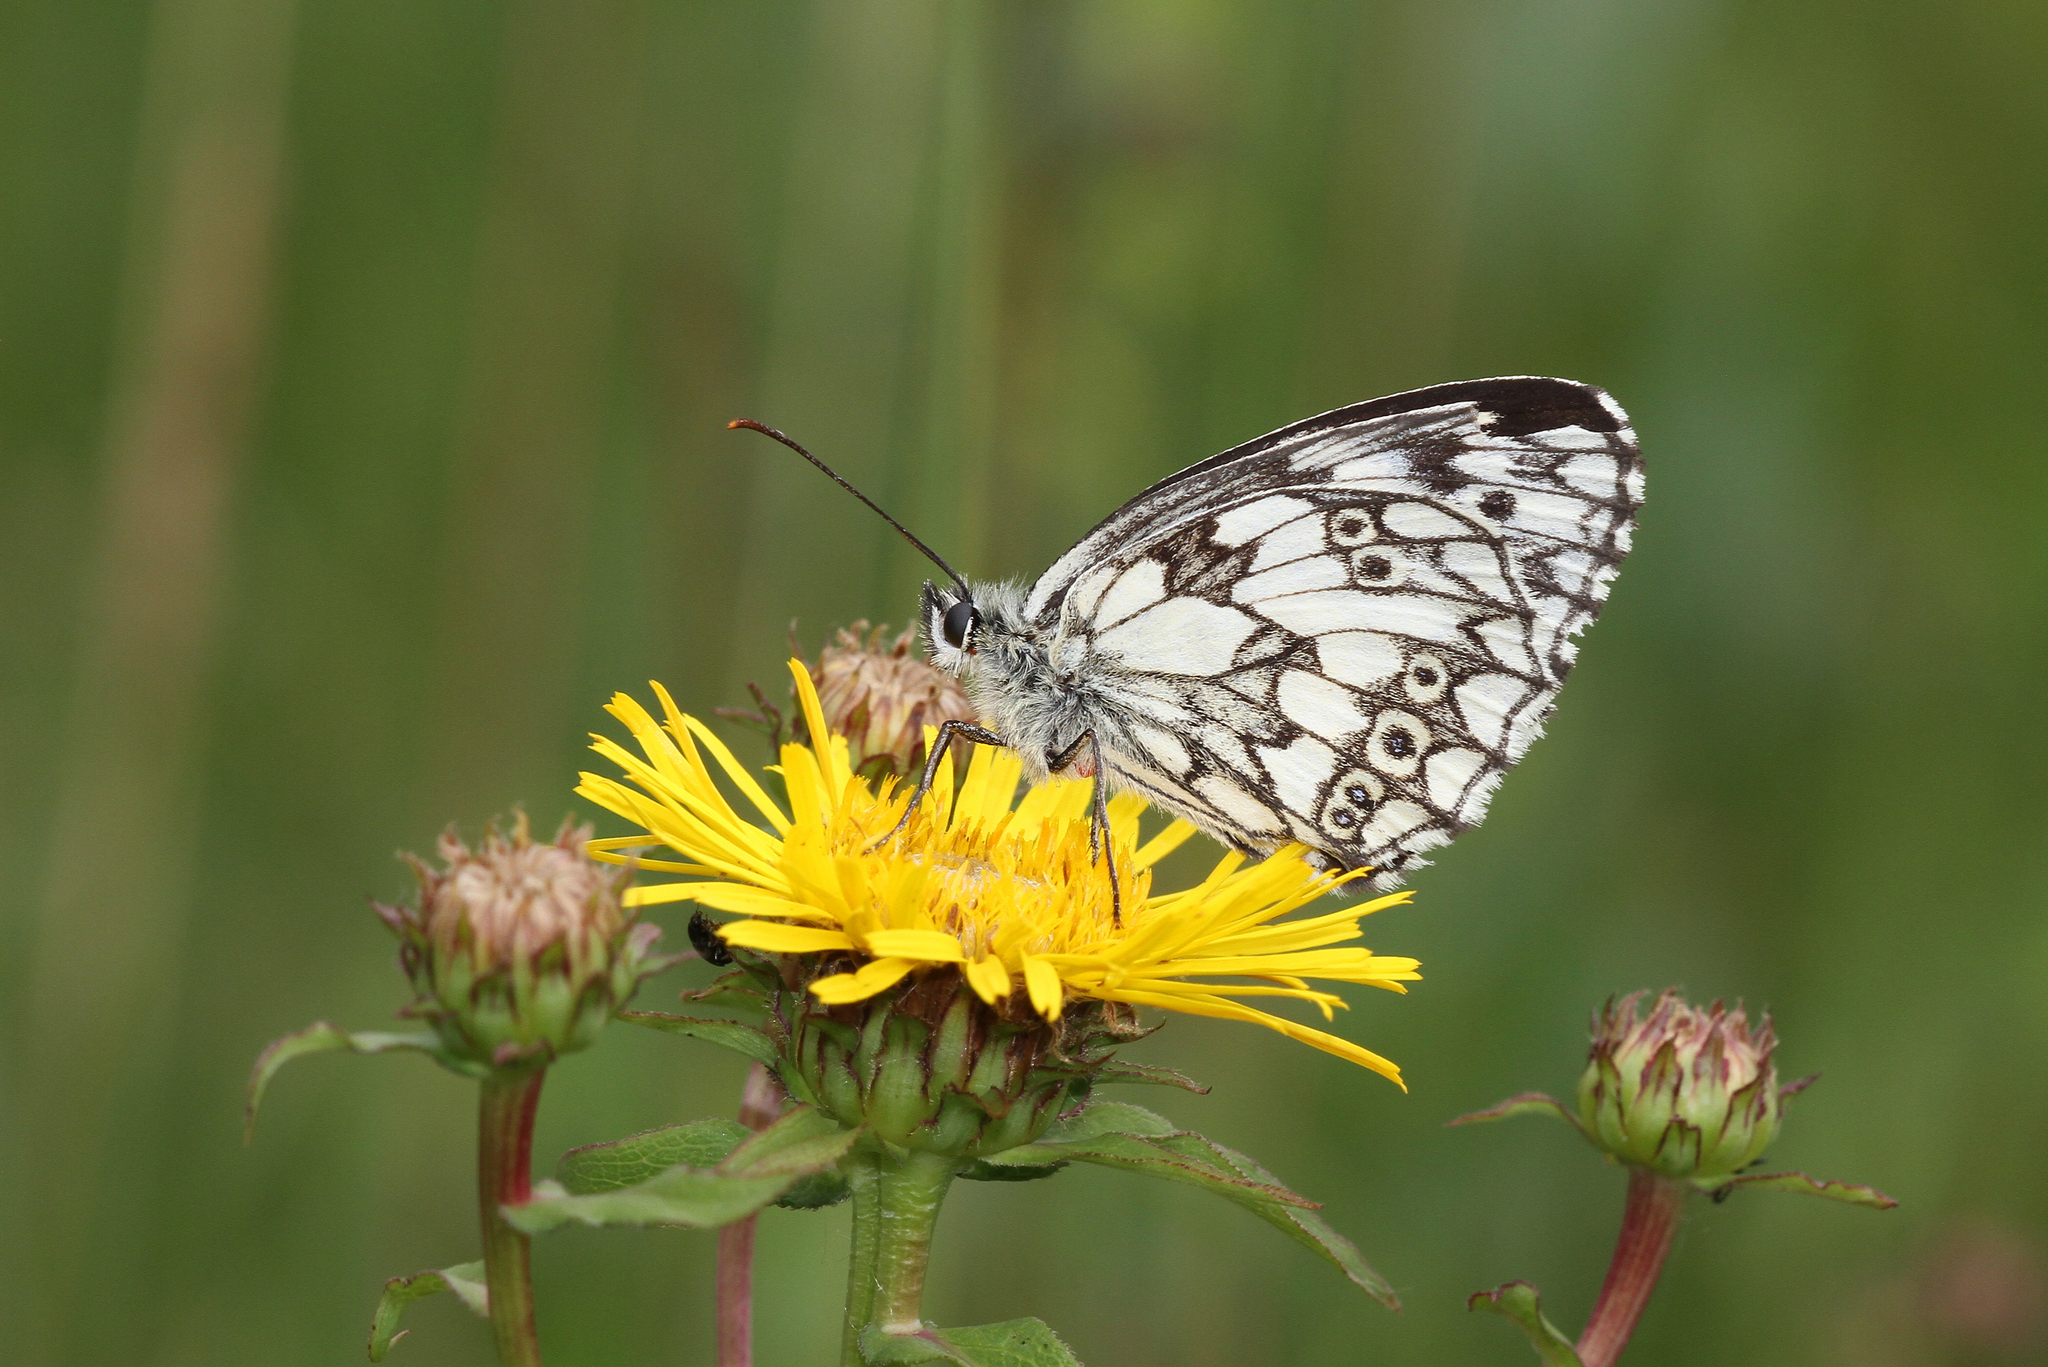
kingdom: Animalia
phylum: Arthropoda
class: Insecta
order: Lepidoptera
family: Nymphalidae
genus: Melanargia
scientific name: Melanargia galathea
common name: Marbled white
